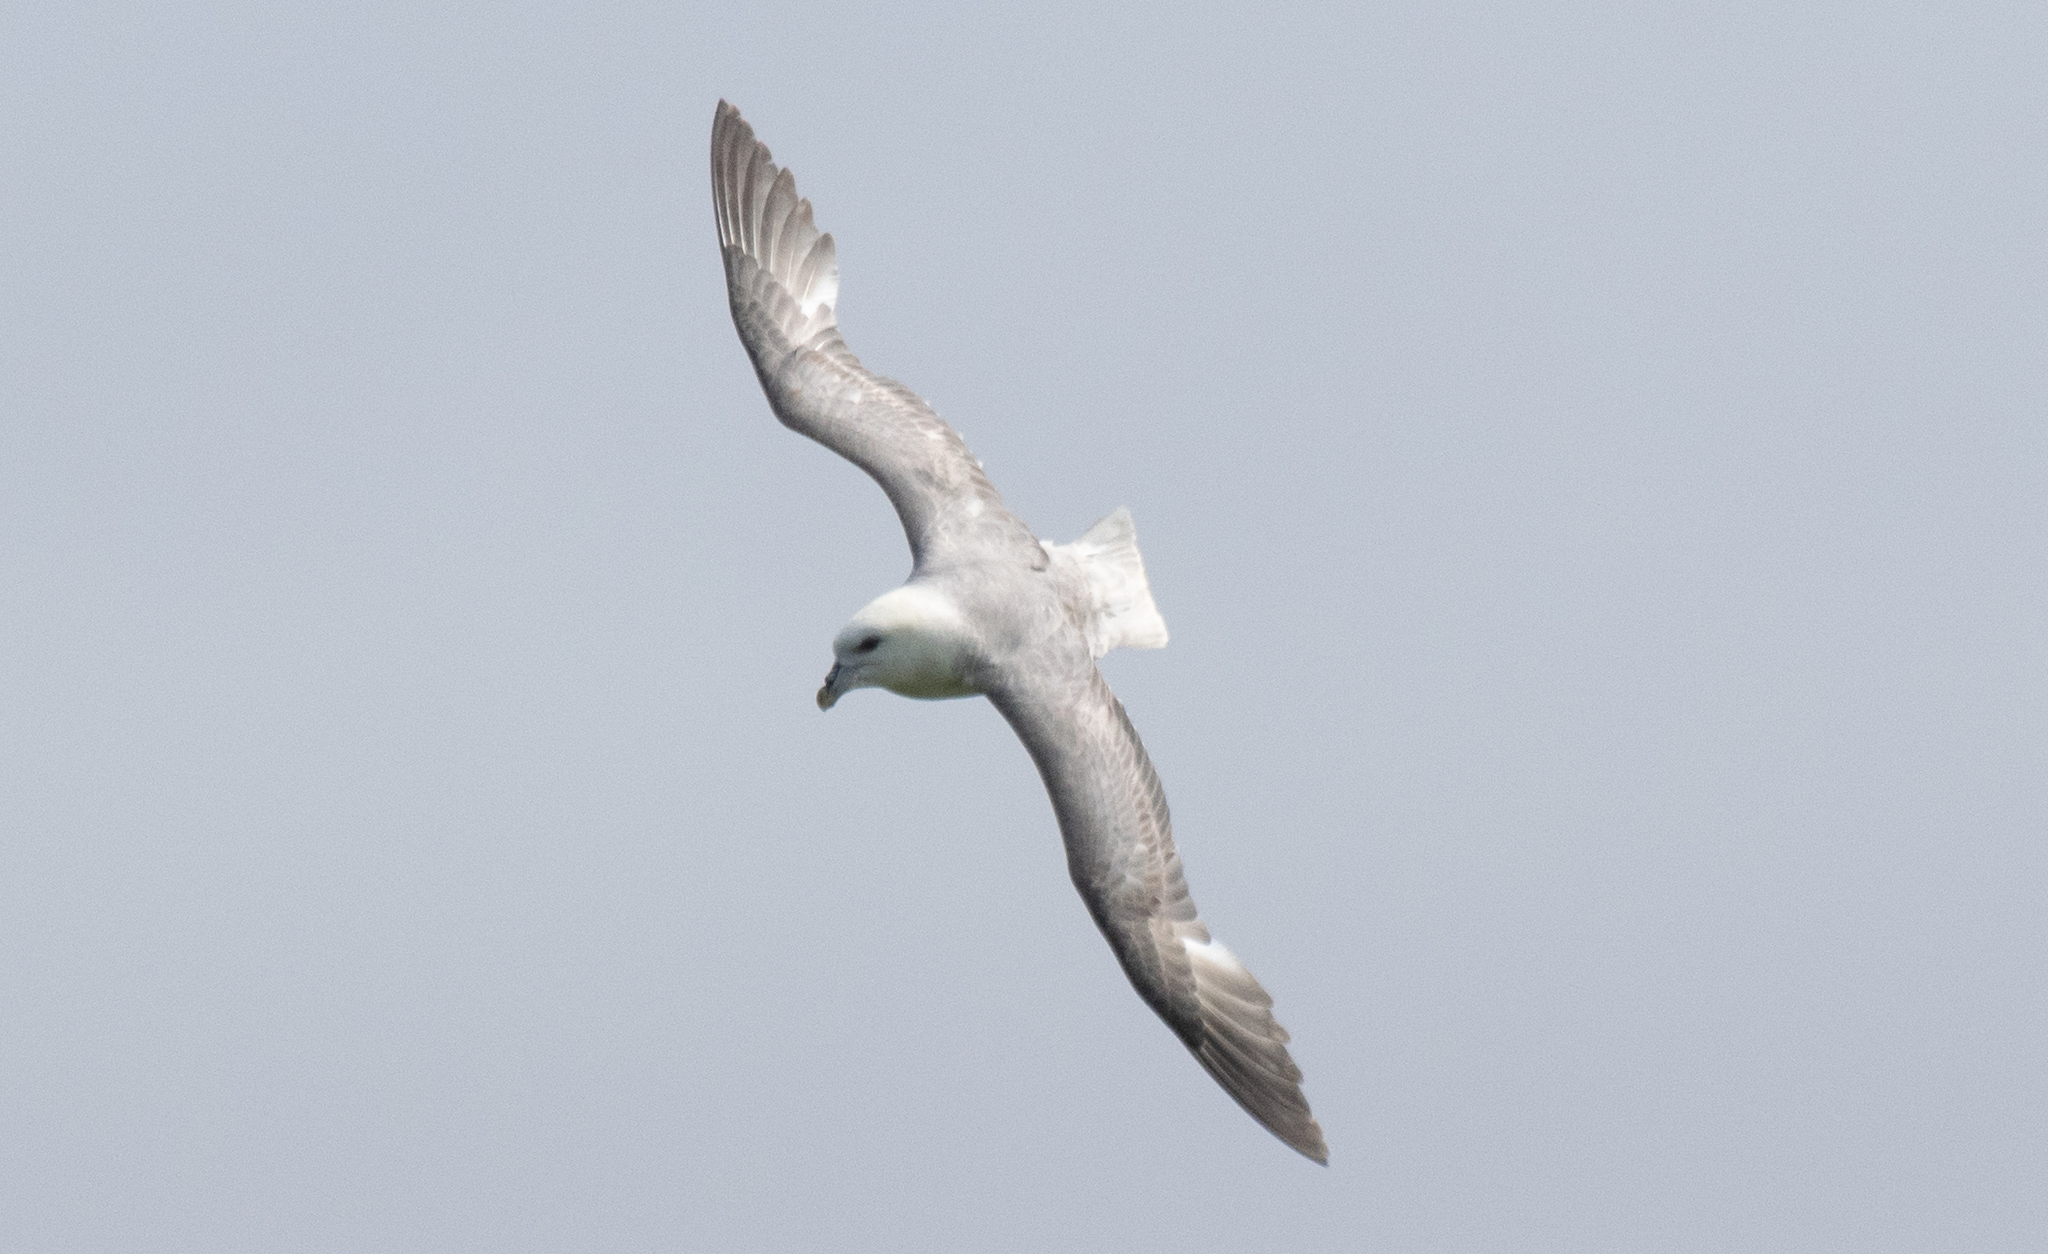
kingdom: Animalia
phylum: Chordata
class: Aves
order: Procellariiformes
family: Procellariidae
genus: Fulmarus
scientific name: Fulmarus glacialis
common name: Northern fulmar
